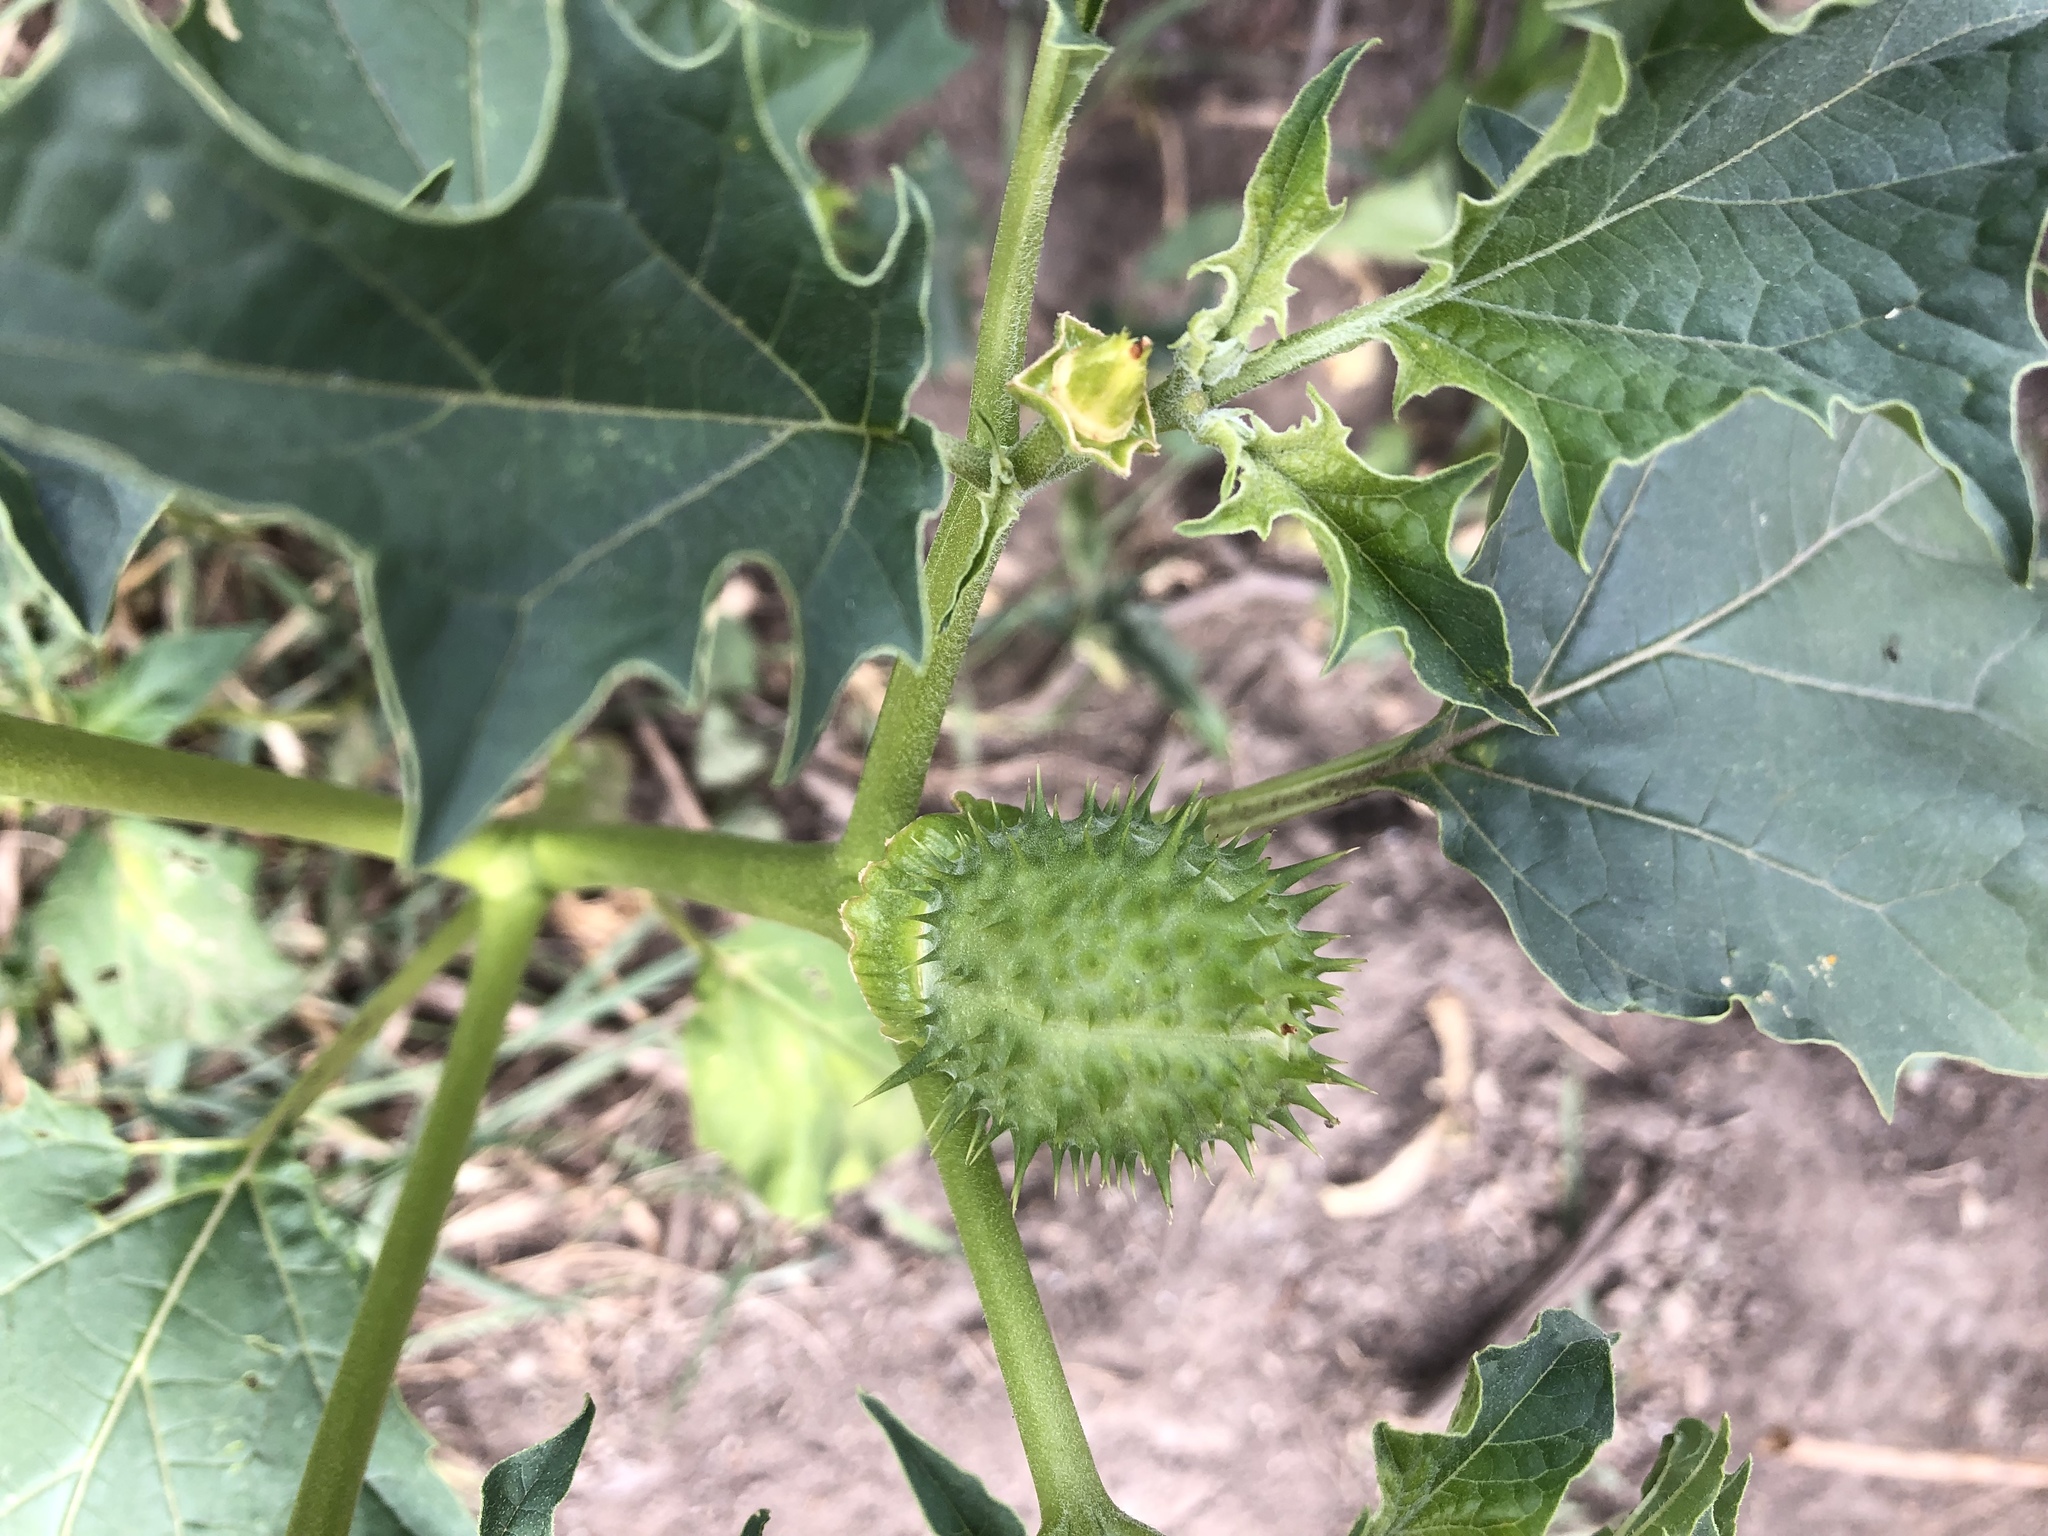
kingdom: Plantae
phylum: Tracheophyta
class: Magnoliopsida
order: Solanales
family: Solanaceae
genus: Datura
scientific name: Datura stramonium
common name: Thorn-apple
